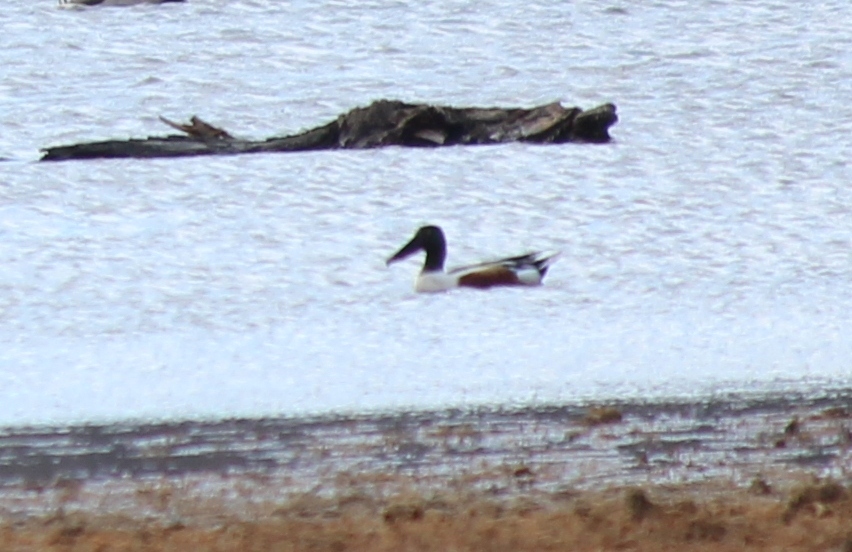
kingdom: Animalia
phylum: Chordata
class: Aves
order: Anseriformes
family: Anatidae
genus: Spatula
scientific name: Spatula clypeata
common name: Northern shoveler
